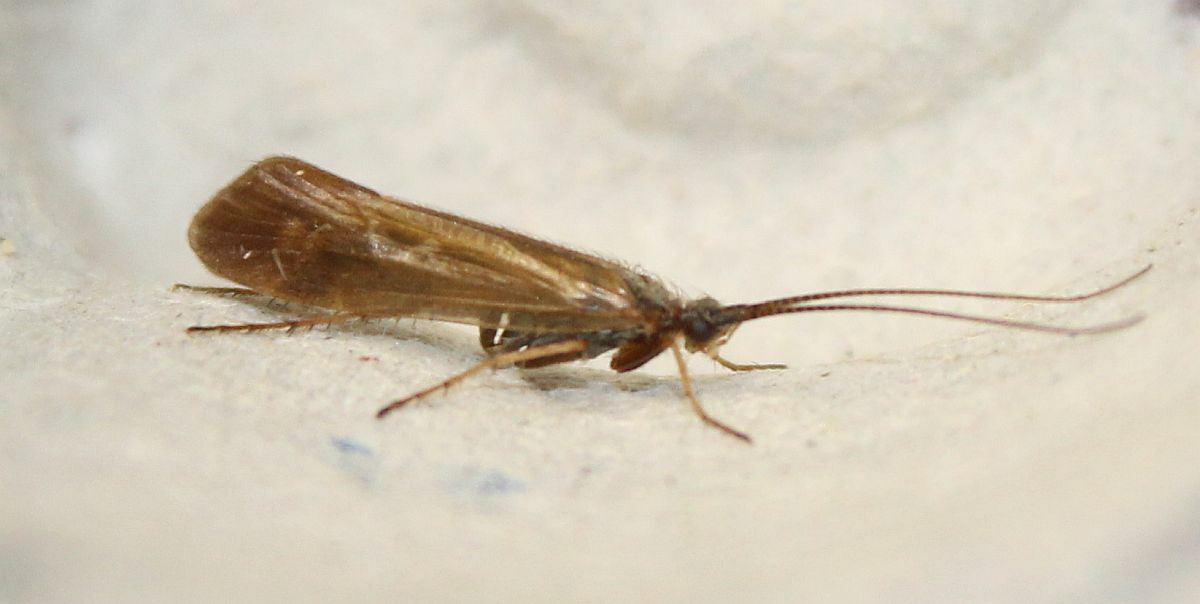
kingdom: Animalia
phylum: Arthropoda
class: Insecta
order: Trichoptera
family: Limnephilidae
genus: Limnephilus
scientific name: Limnephilus auricula
